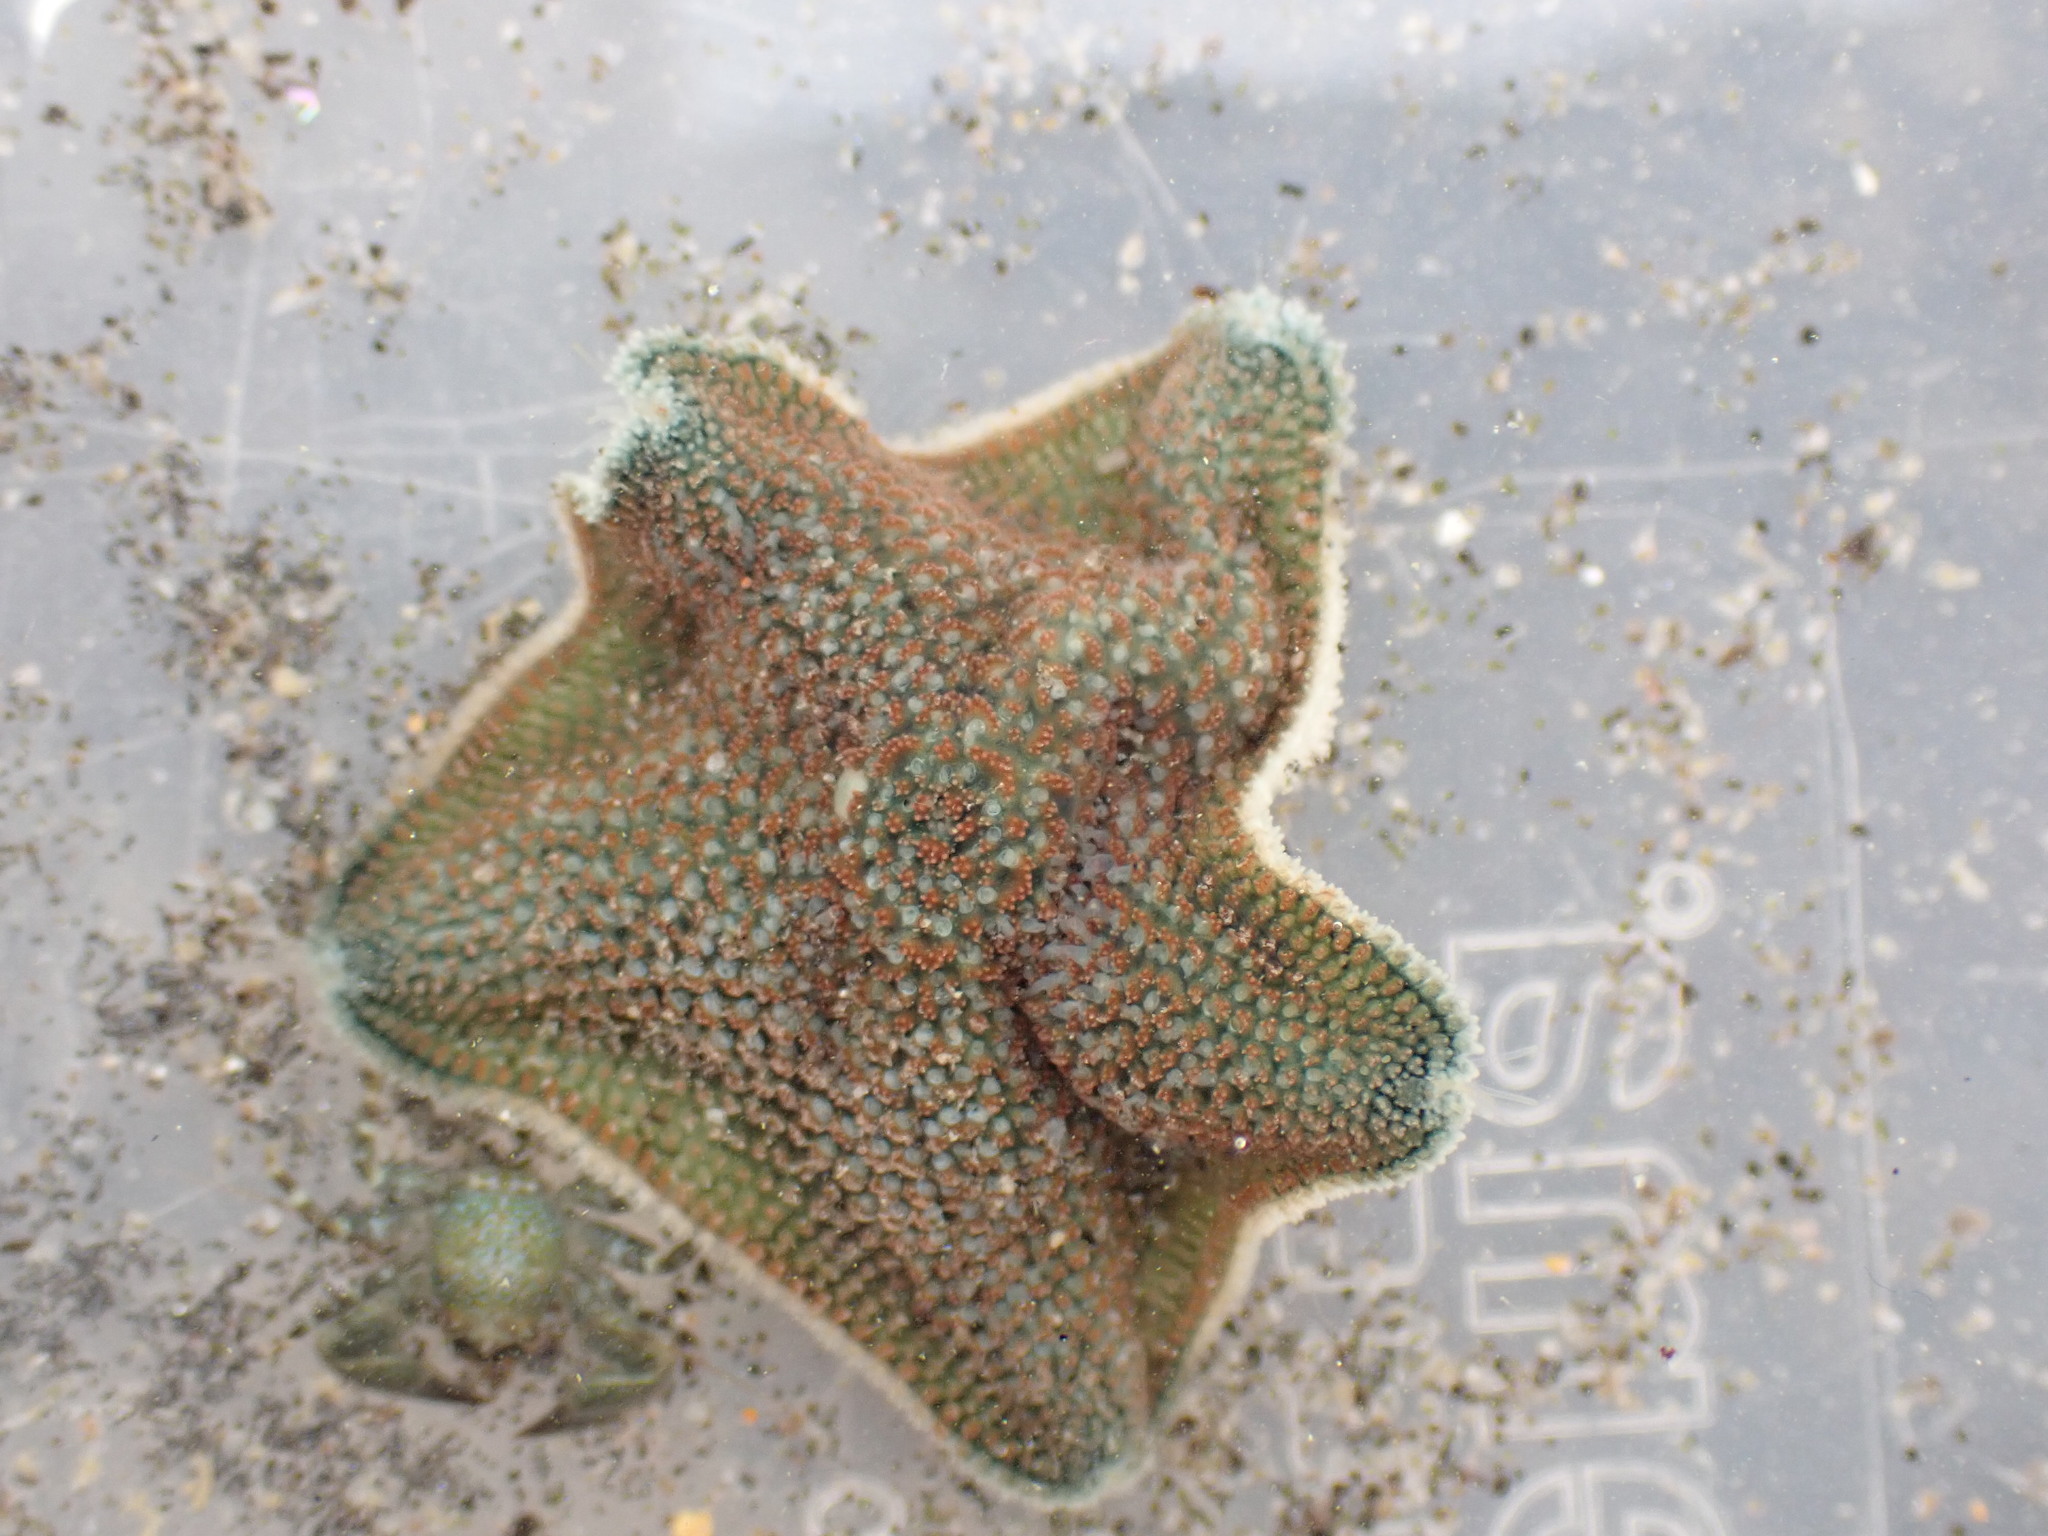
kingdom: Animalia
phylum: Echinodermata
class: Asteroidea
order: Valvatida
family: Asterinidae
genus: Patiriella
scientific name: Patiriella regularis
